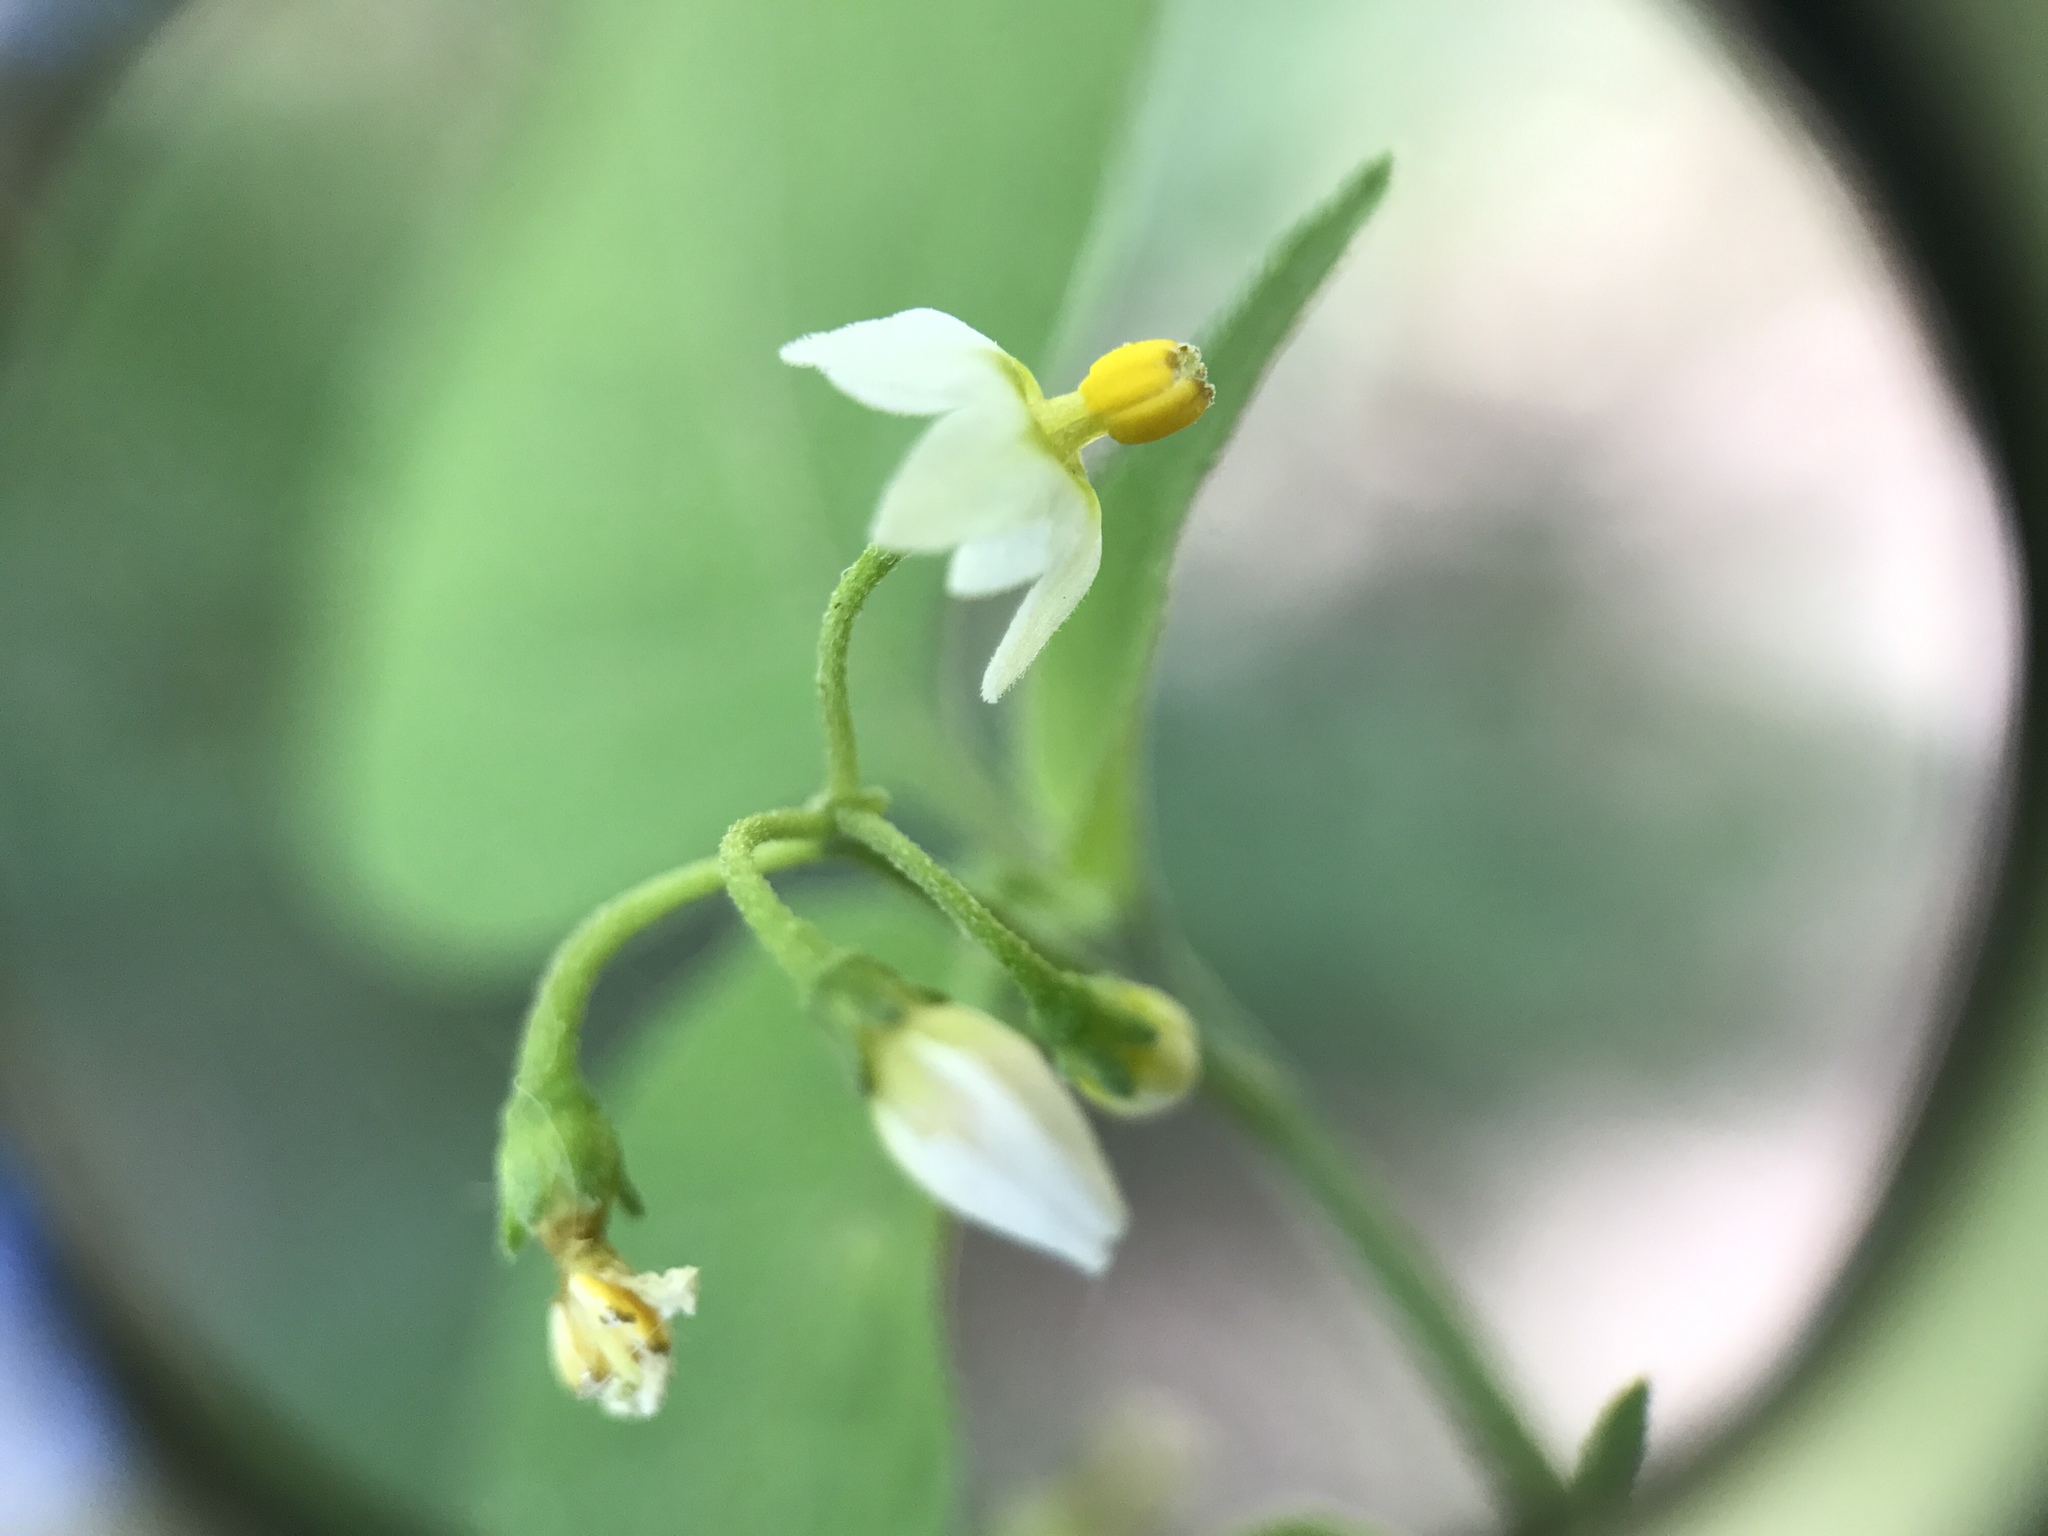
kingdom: Plantae
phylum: Tracheophyta
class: Magnoliopsida
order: Solanales
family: Solanaceae
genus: Solanum
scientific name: Solanum americanum
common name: American black nightshade
